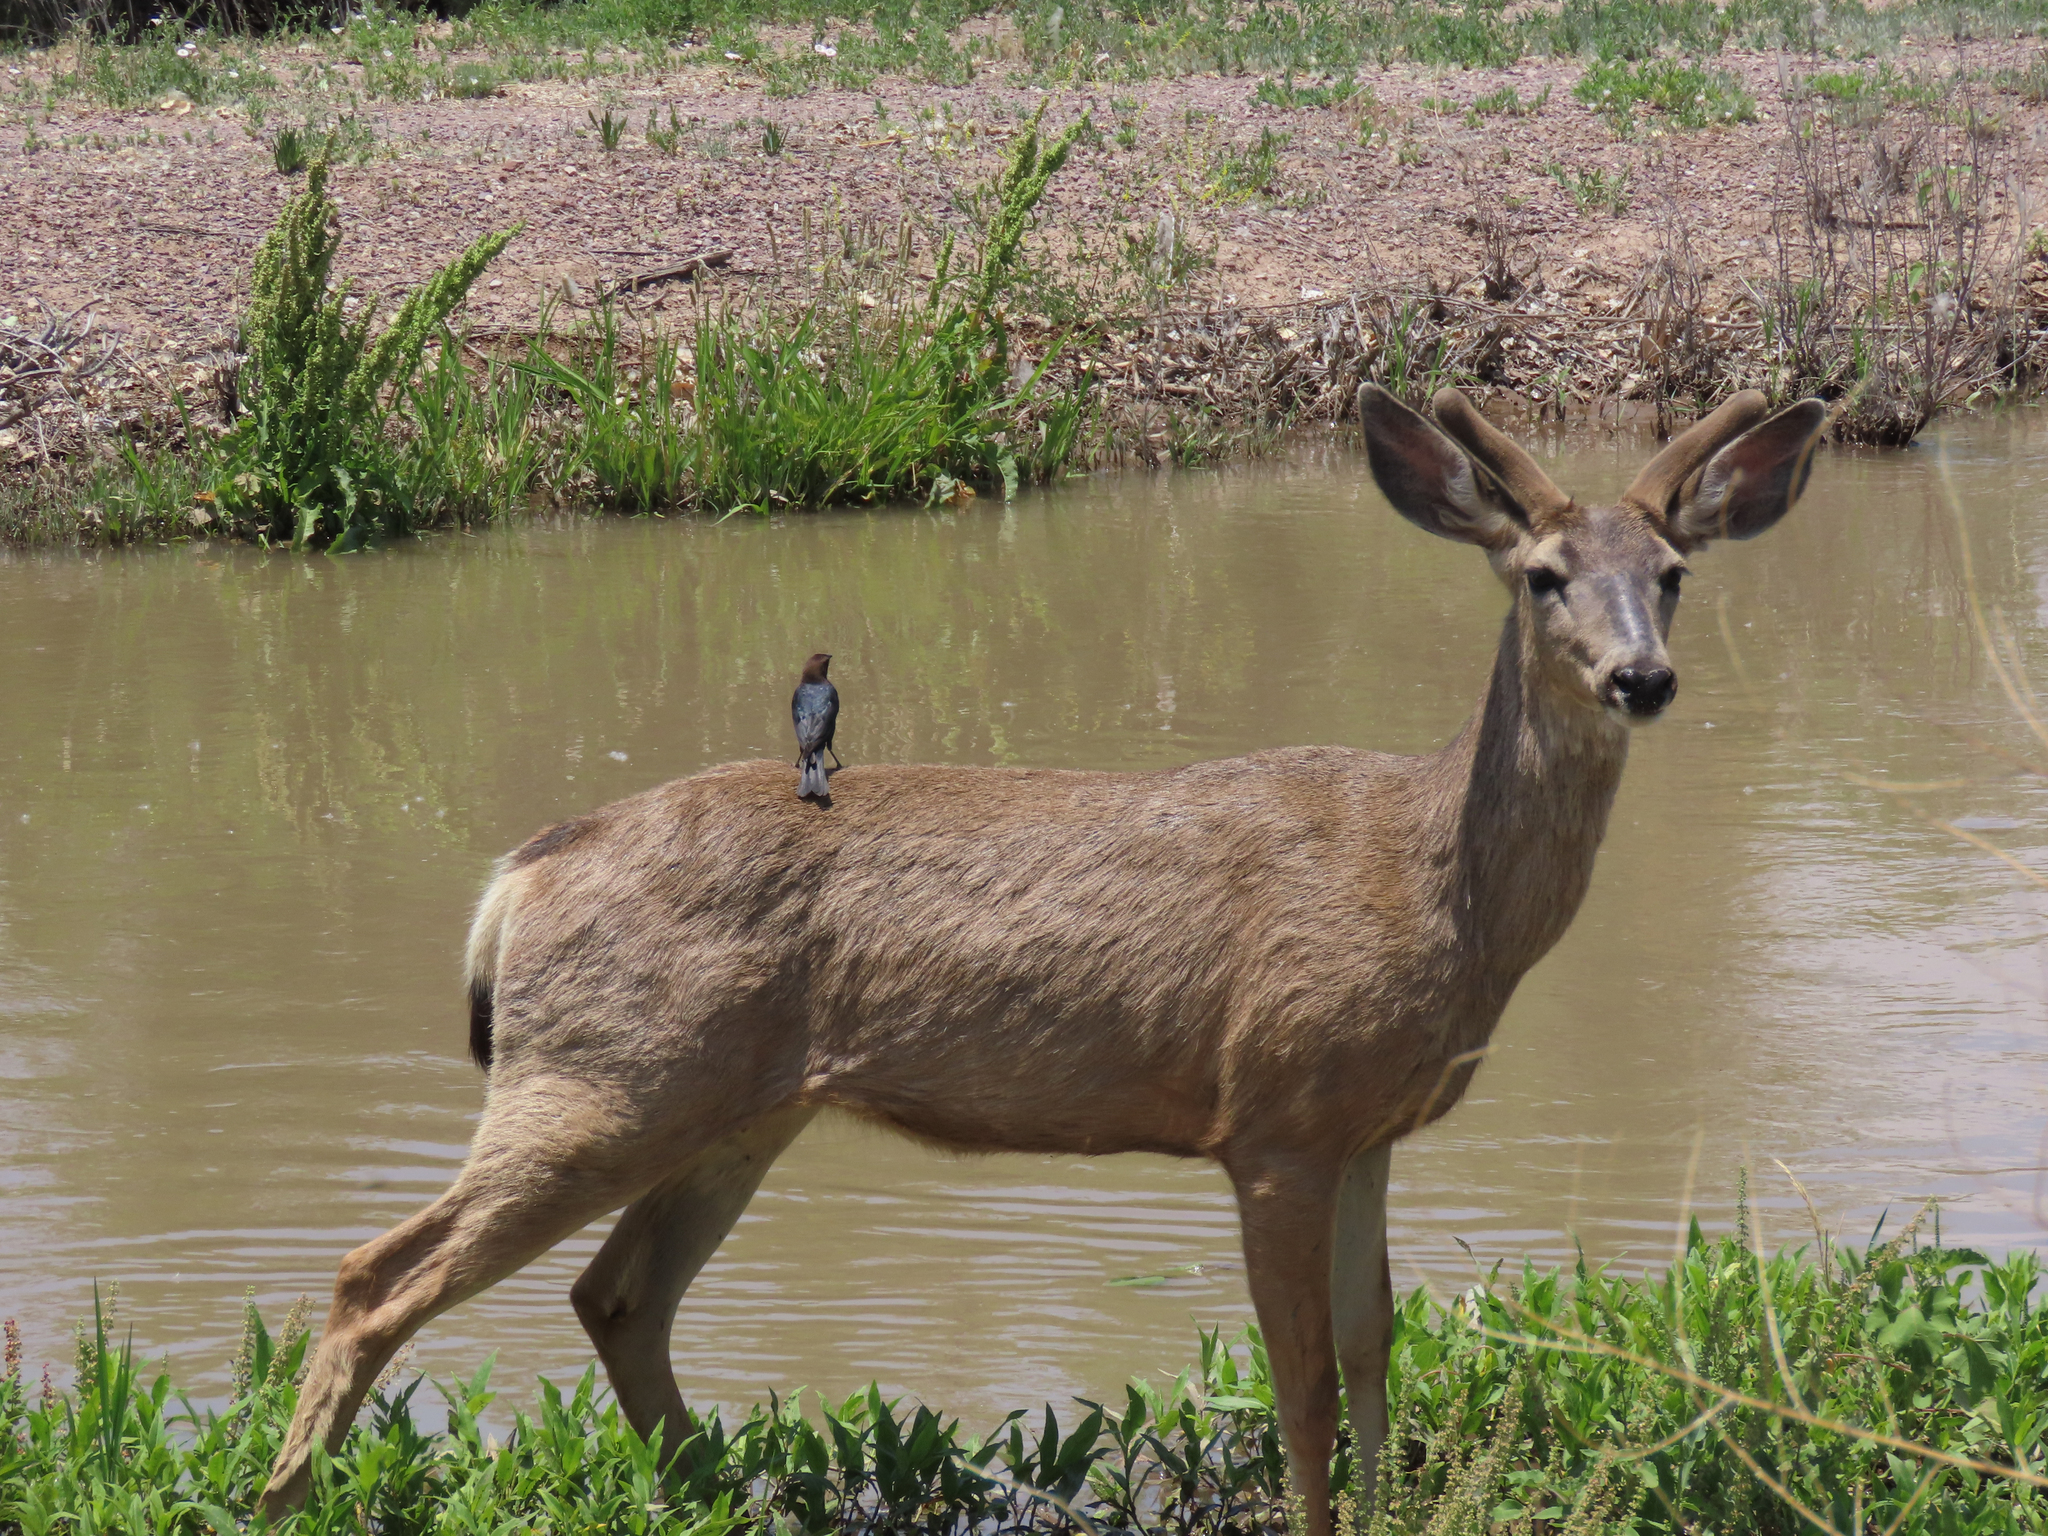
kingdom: Animalia
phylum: Chordata
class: Mammalia
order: Artiodactyla
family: Cervidae
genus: Odocoileus
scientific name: Odocoileus hemionus
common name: Mule deer
